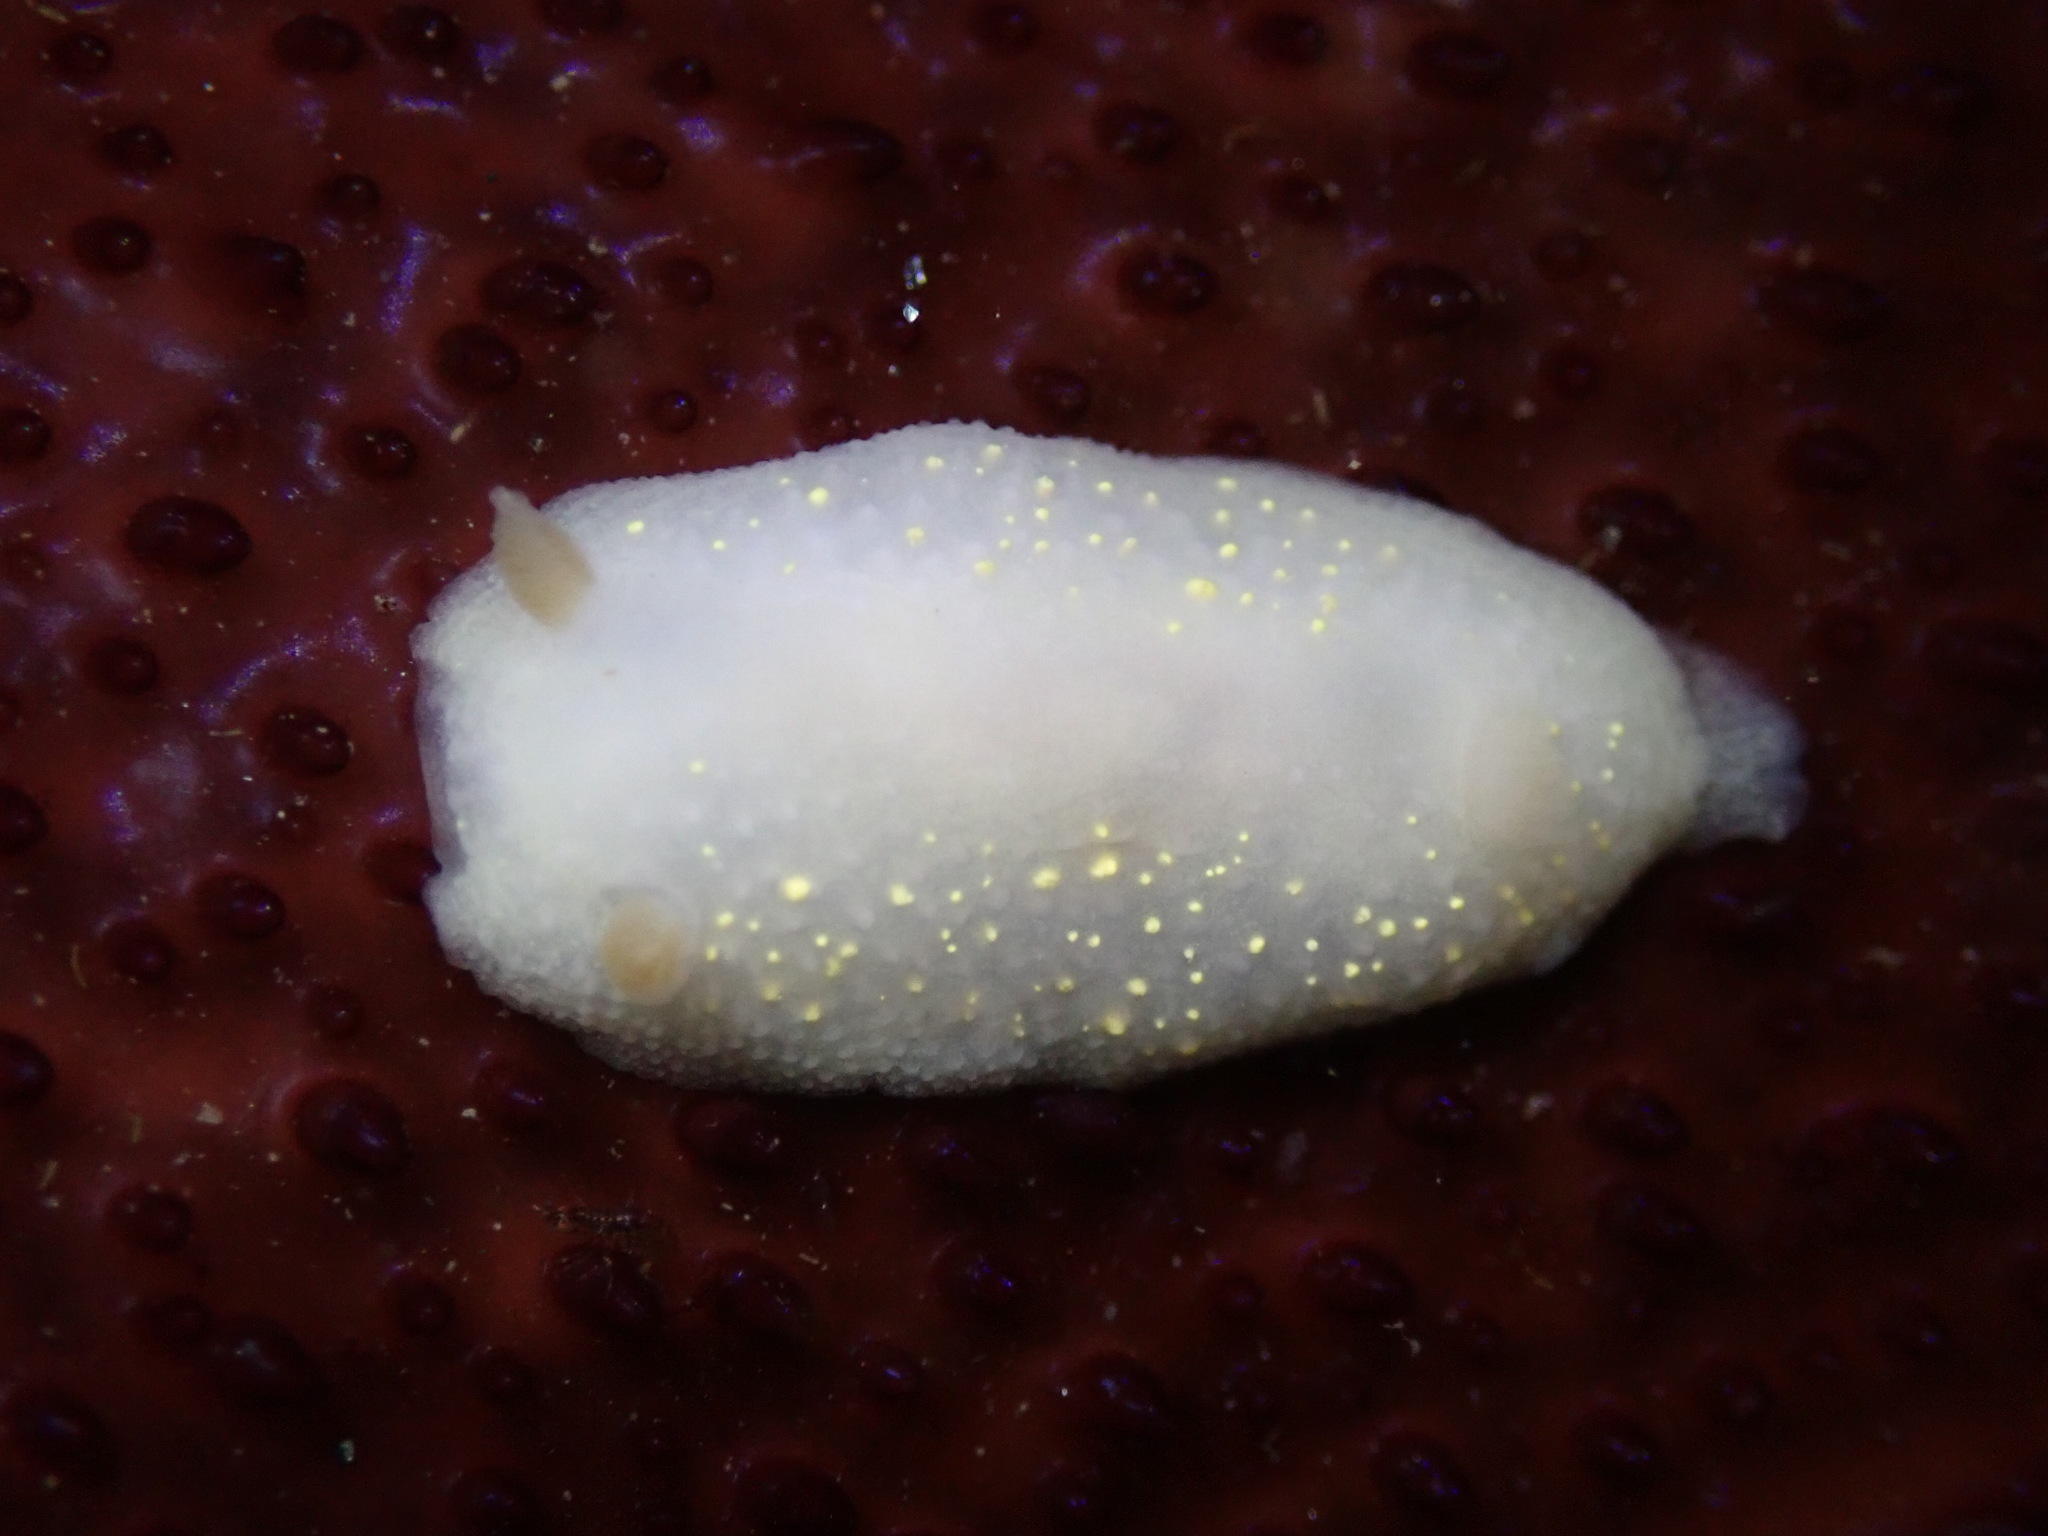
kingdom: Animalia
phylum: Mollusca
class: Gastropoda
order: Nudibranchia
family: Cadlinidae
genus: Cadlina
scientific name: Cadlina modesta
